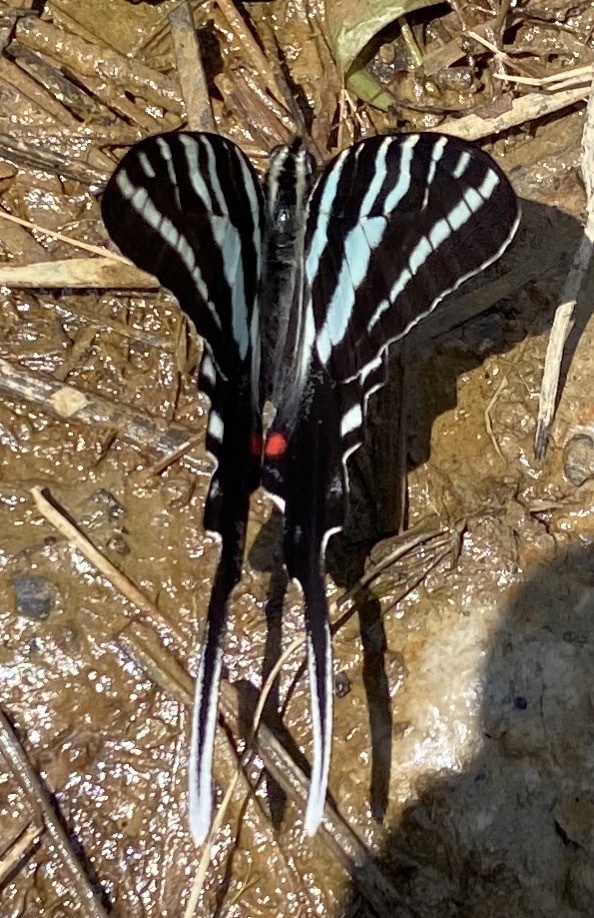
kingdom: Animalia
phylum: Arthropoda
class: Insecta
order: Lepidoptera
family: Papilionidae
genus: Protographium
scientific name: Protographium marcellus
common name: Zebra swallowtail
